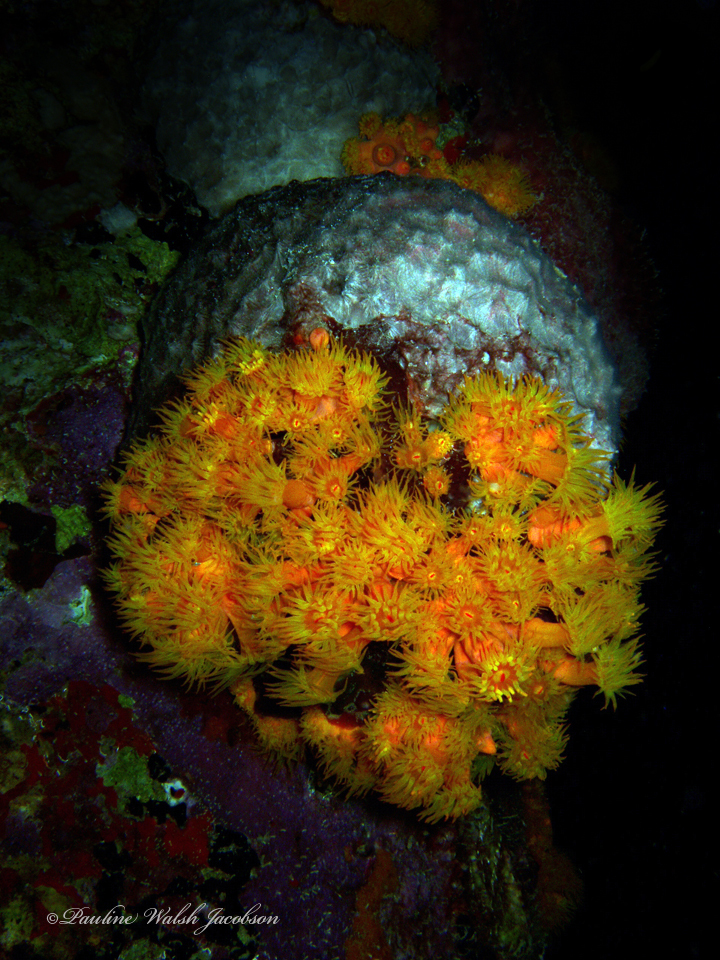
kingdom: Animalia
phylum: Cnidaria
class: Anthozoa
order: Scleractinia
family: Dendrophylliidae
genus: Tubastraea
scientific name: Tubastraea coccinea
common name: Orange cup coral
